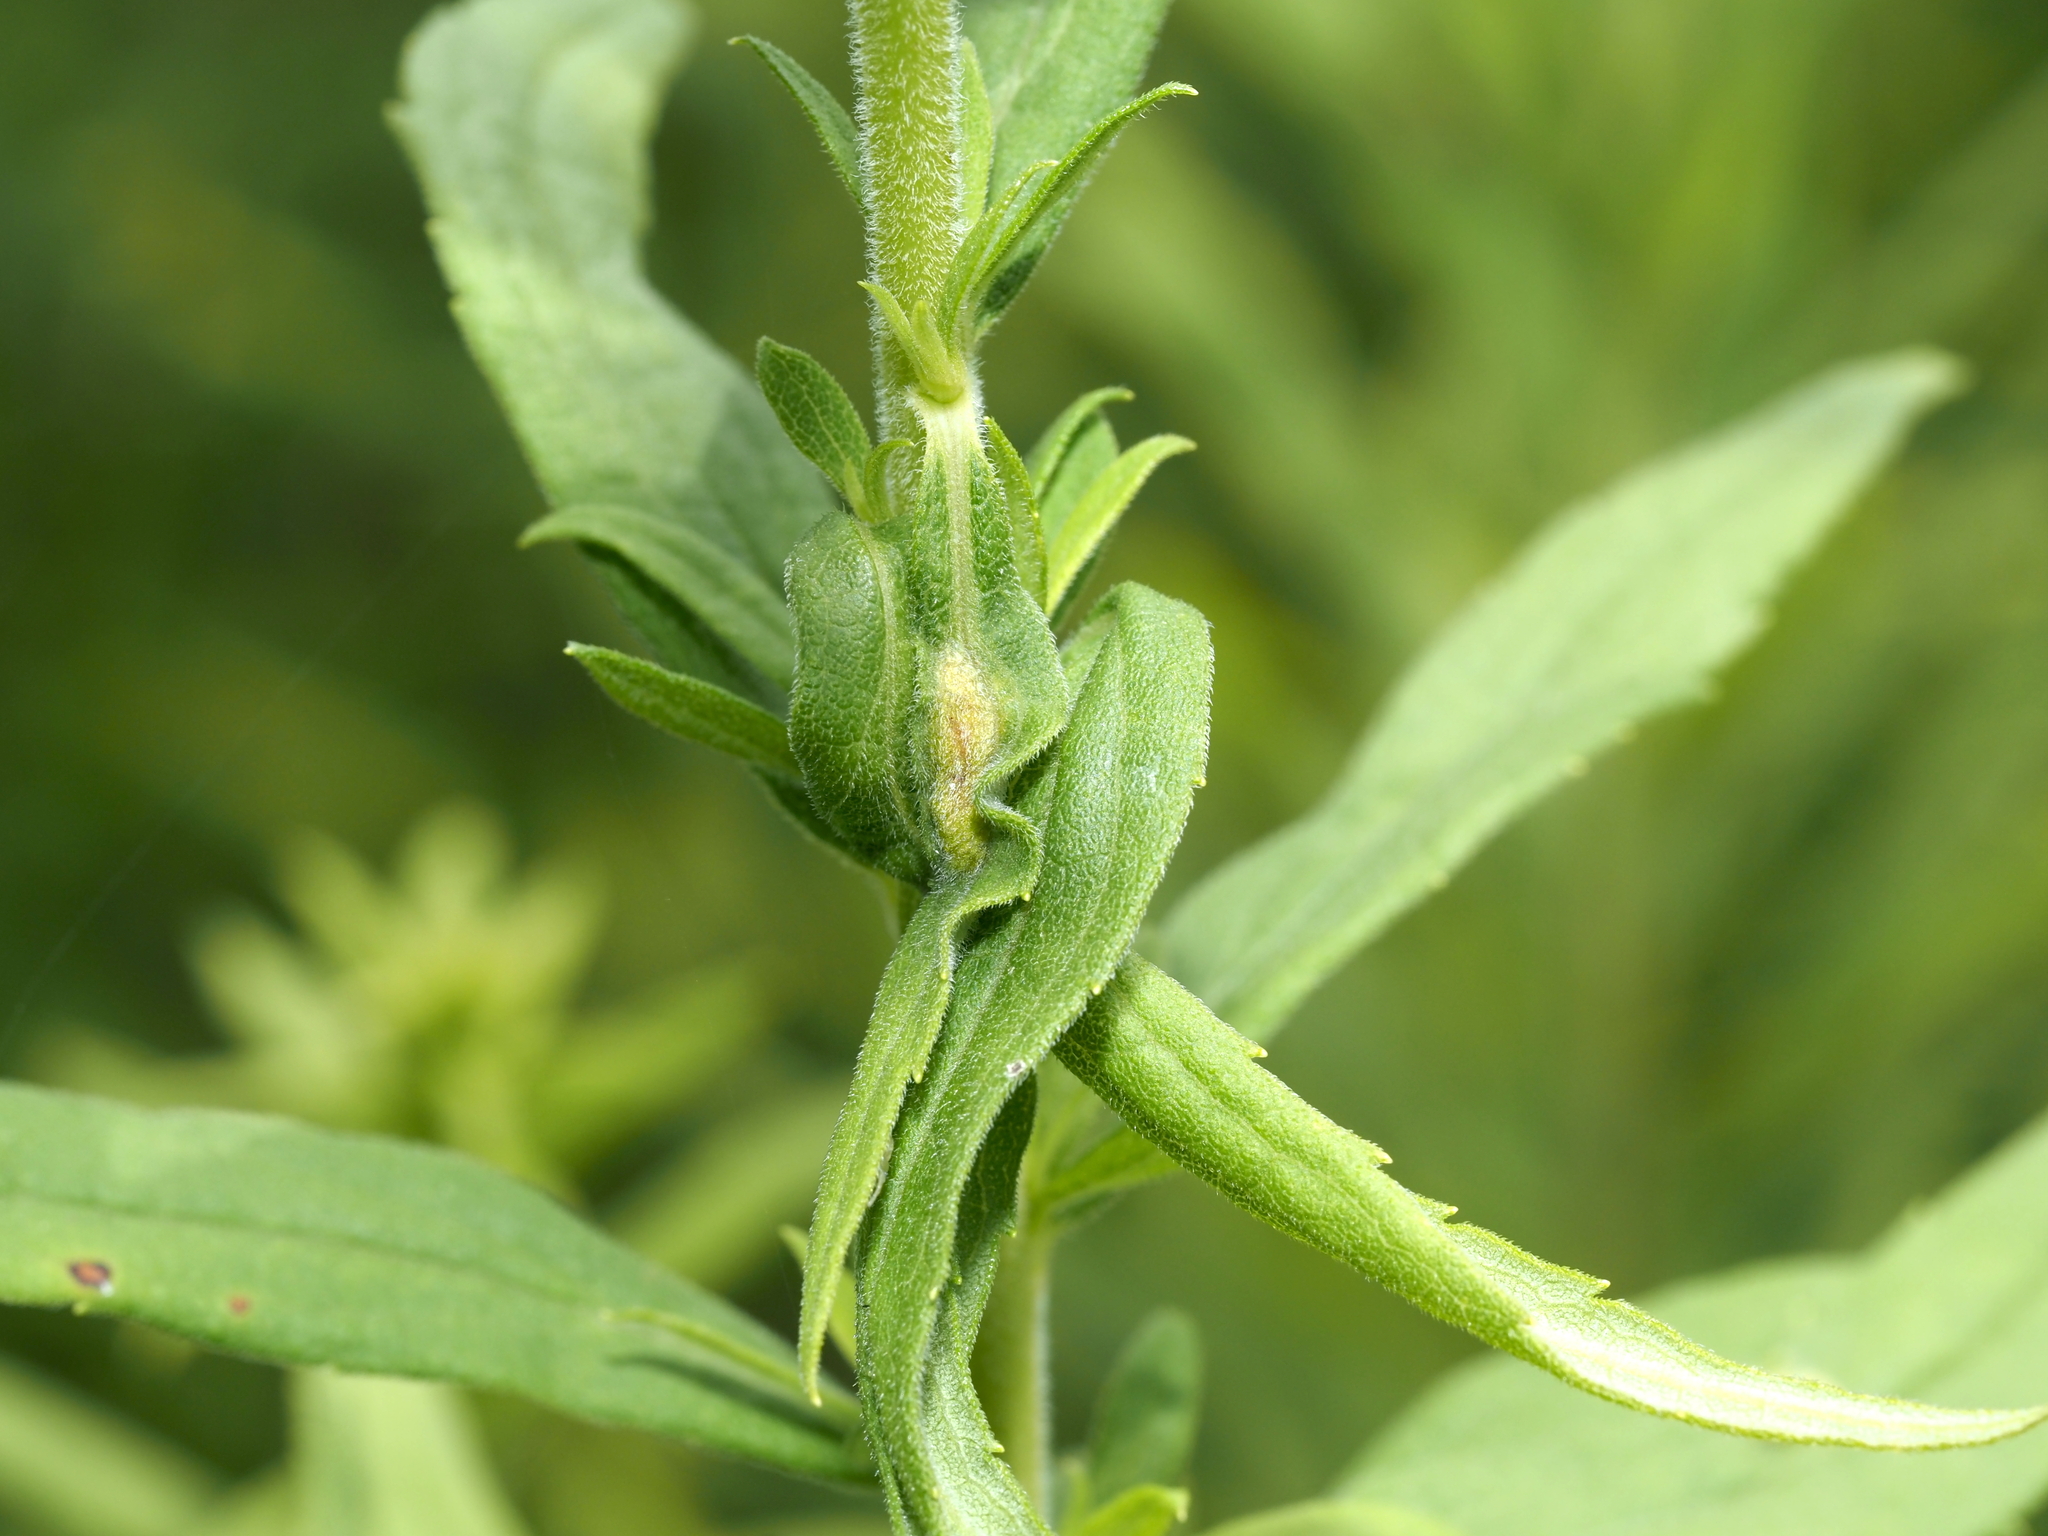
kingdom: Animalia
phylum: Arthropoda
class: Insecta
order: Diptera
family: Cecidomyiidae
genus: Asphondylia
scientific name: Asphondylia solidaginis
